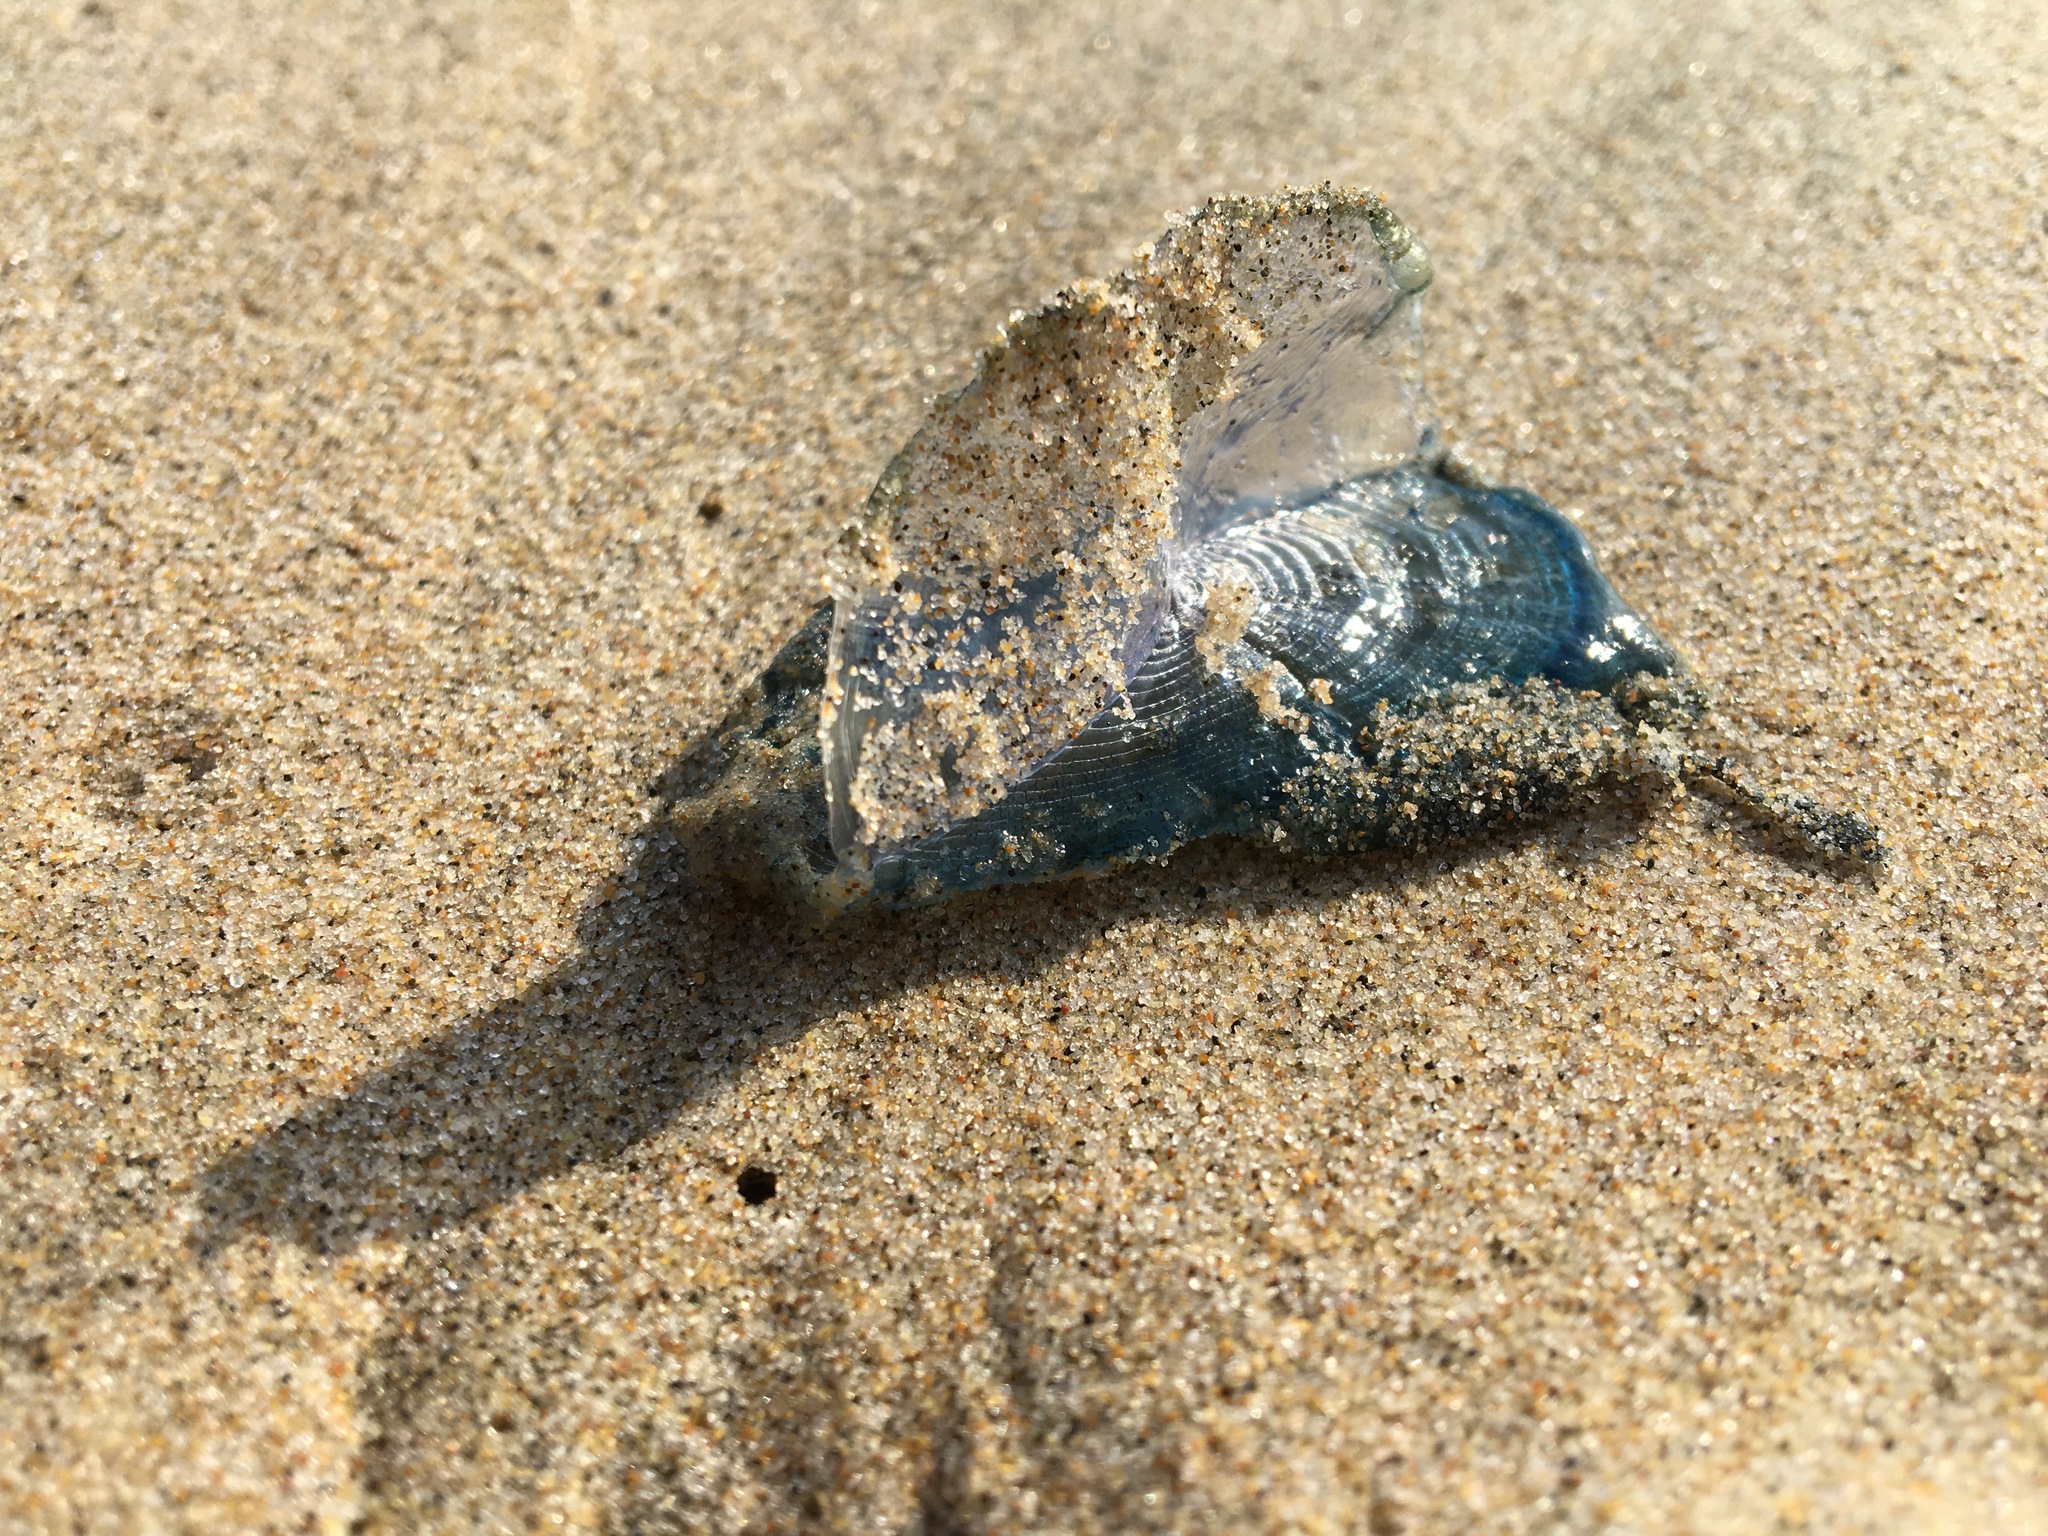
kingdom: Animalia
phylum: Cnidaria
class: Hydrozoa
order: Anthoathecata
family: Porpitidae
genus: Velella
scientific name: Velella velella
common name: By-the-wind-sailor
